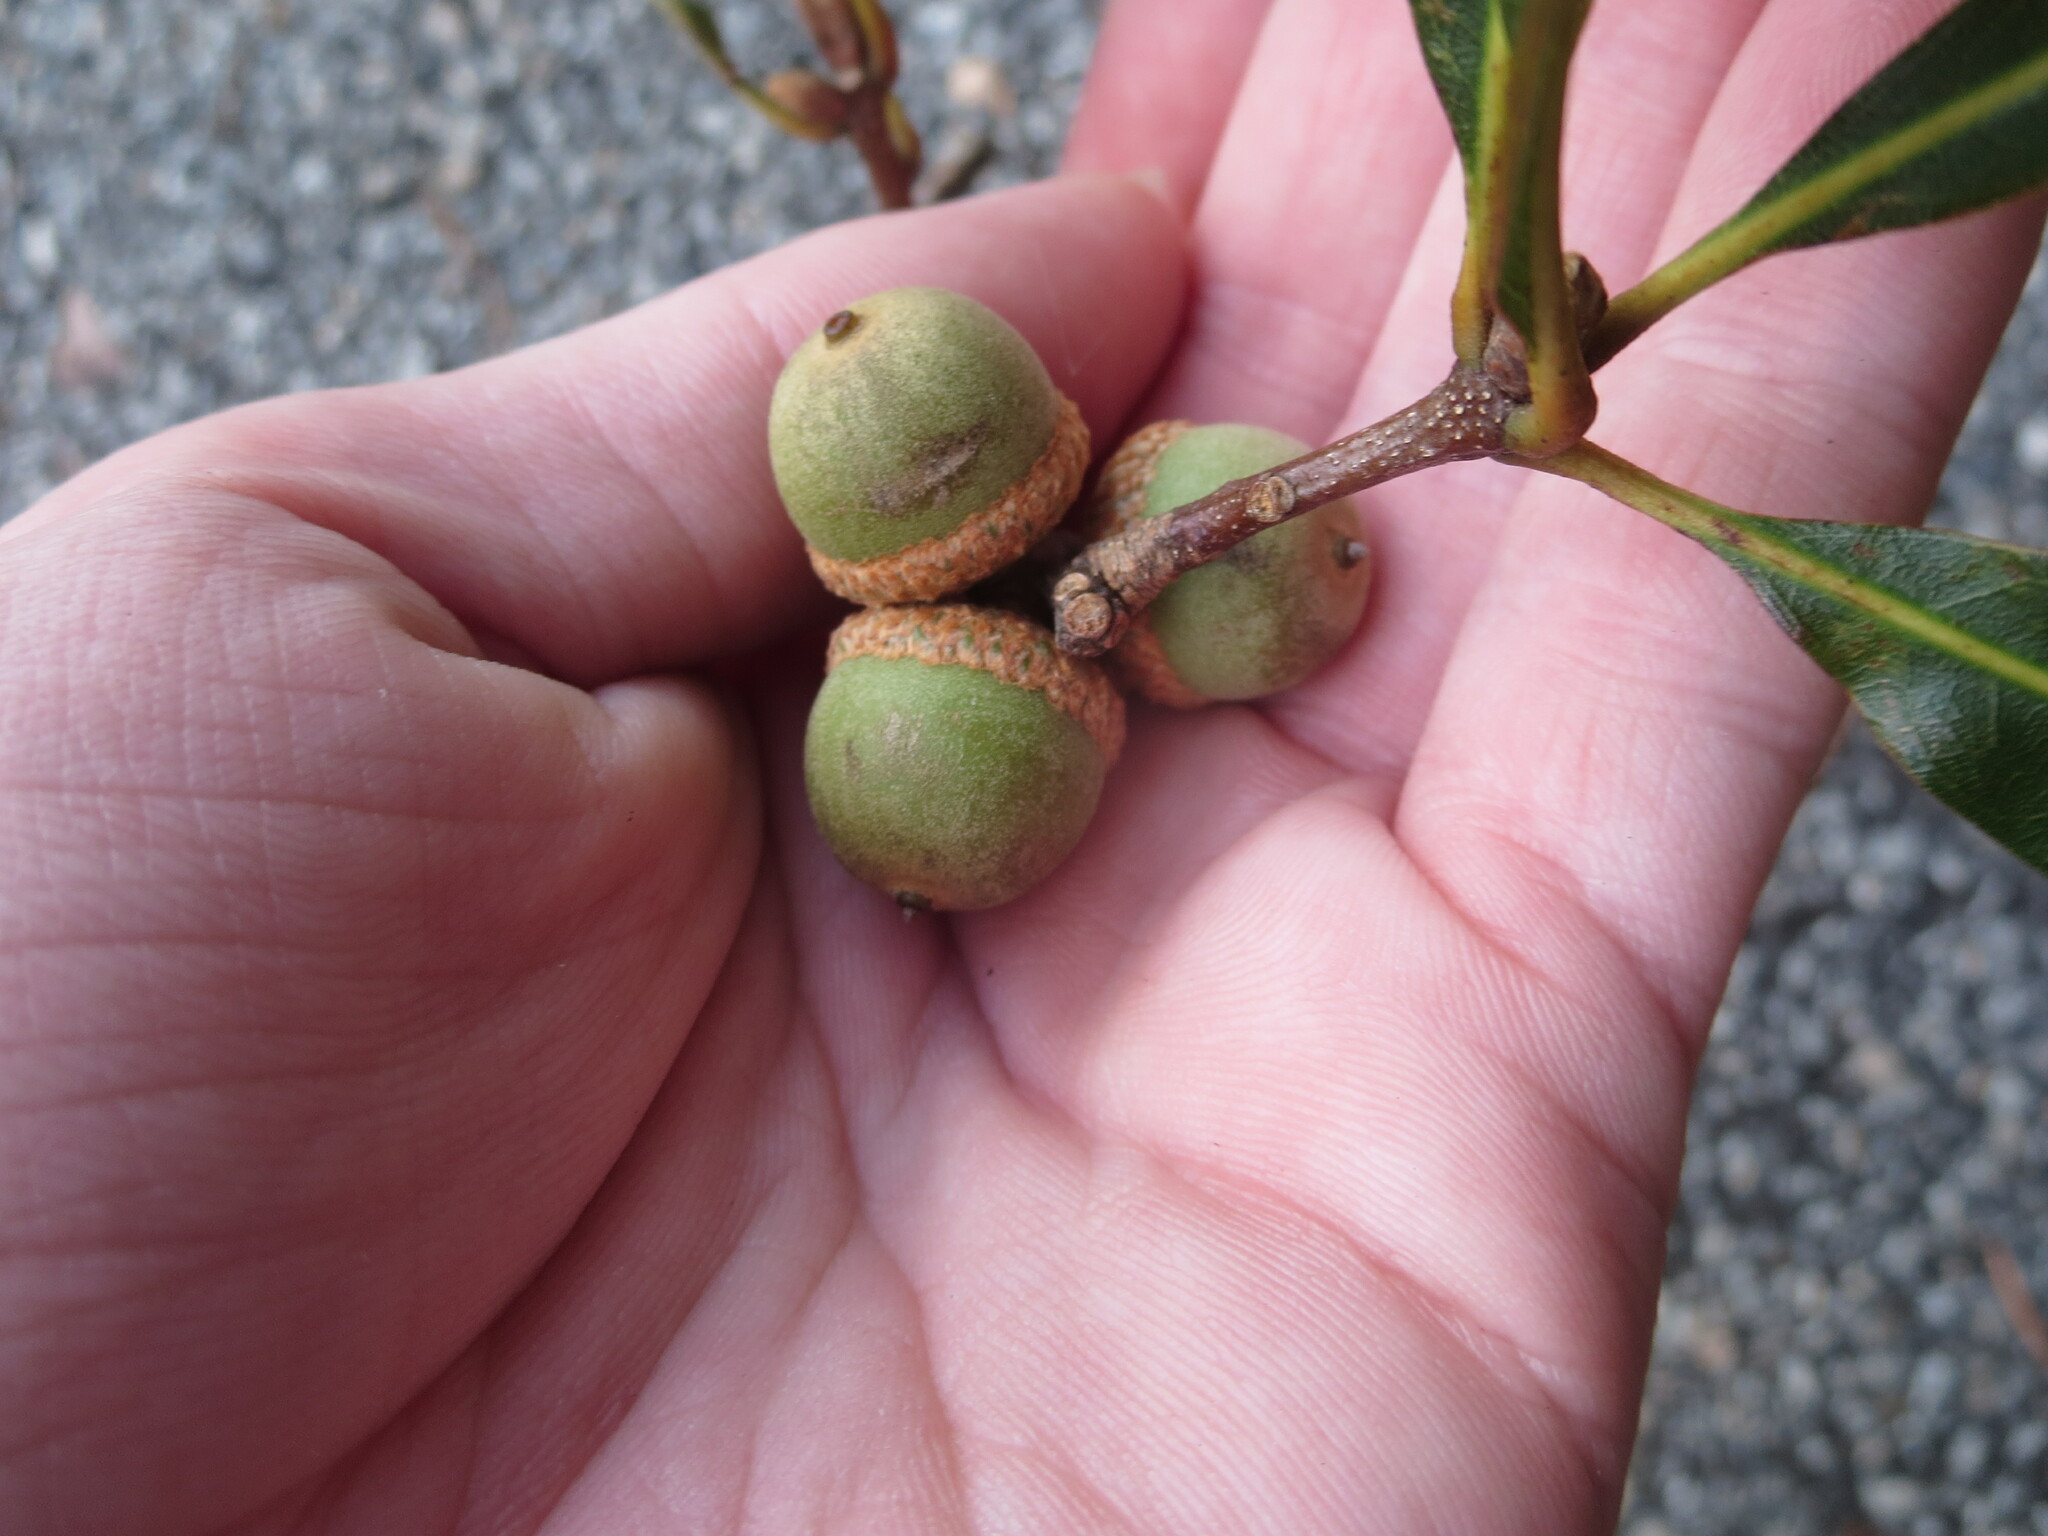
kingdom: Plantae
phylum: Tracheophyta
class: Magnoliopsida
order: Fagales
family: Fagaceae
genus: Quercus
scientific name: Quercus nigra
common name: Water oak
